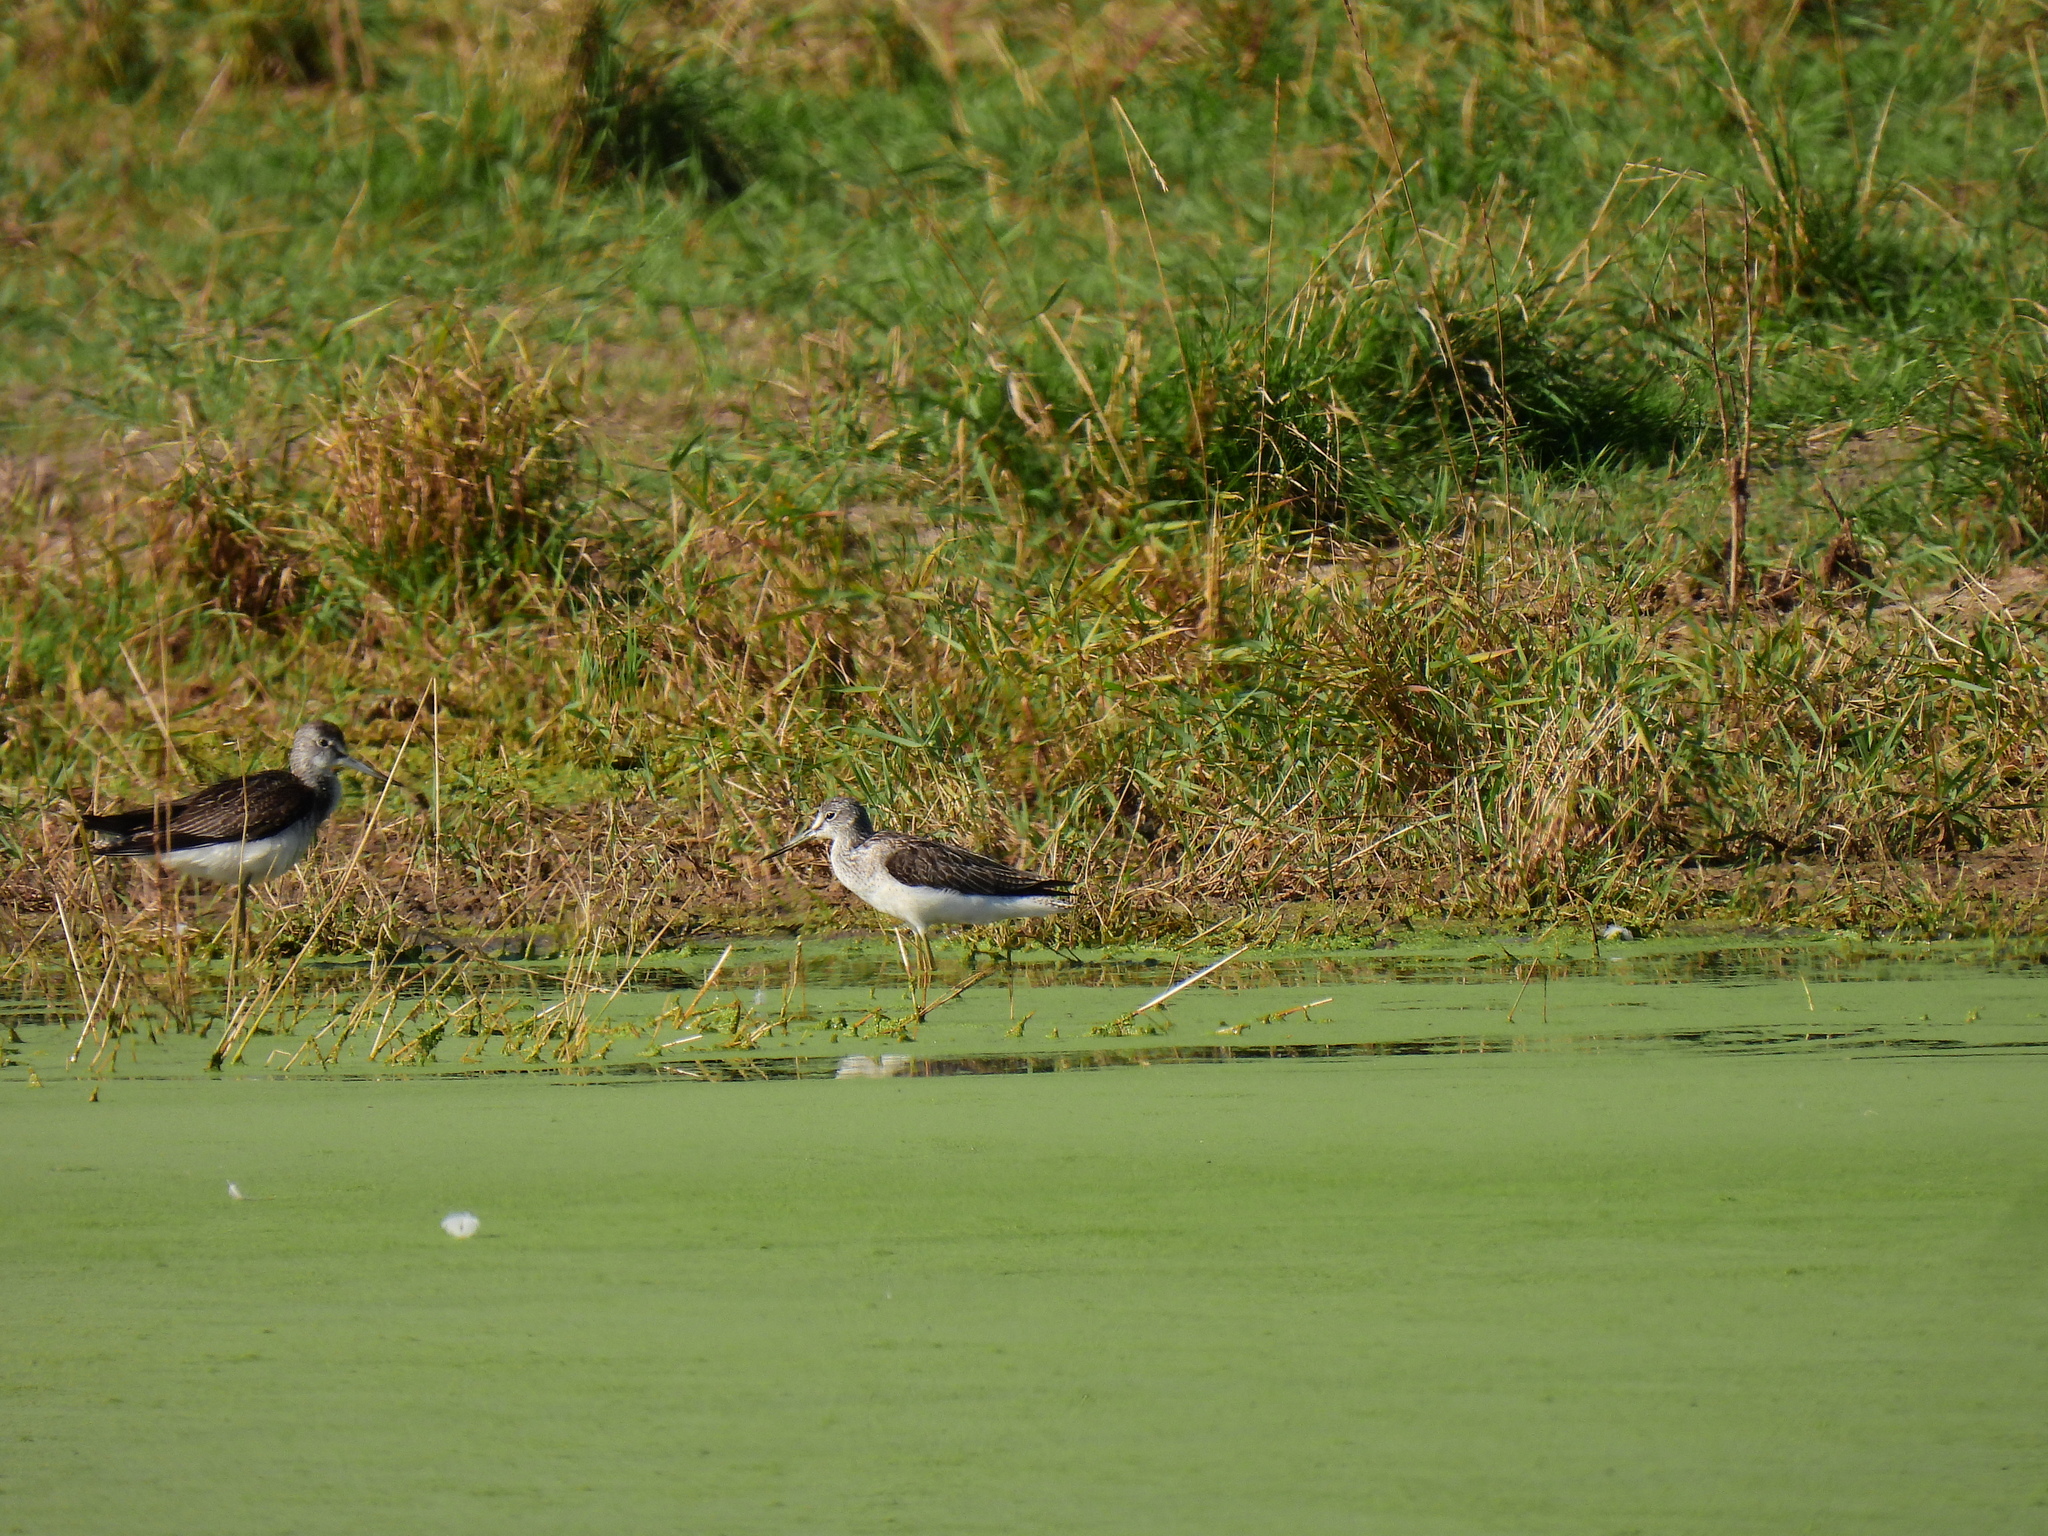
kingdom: Animalia
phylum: Chordata
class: Aves
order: Charadriiformes
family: Scolopacidae
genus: Tringa
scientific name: Tringa nebularia
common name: Common greenshank
